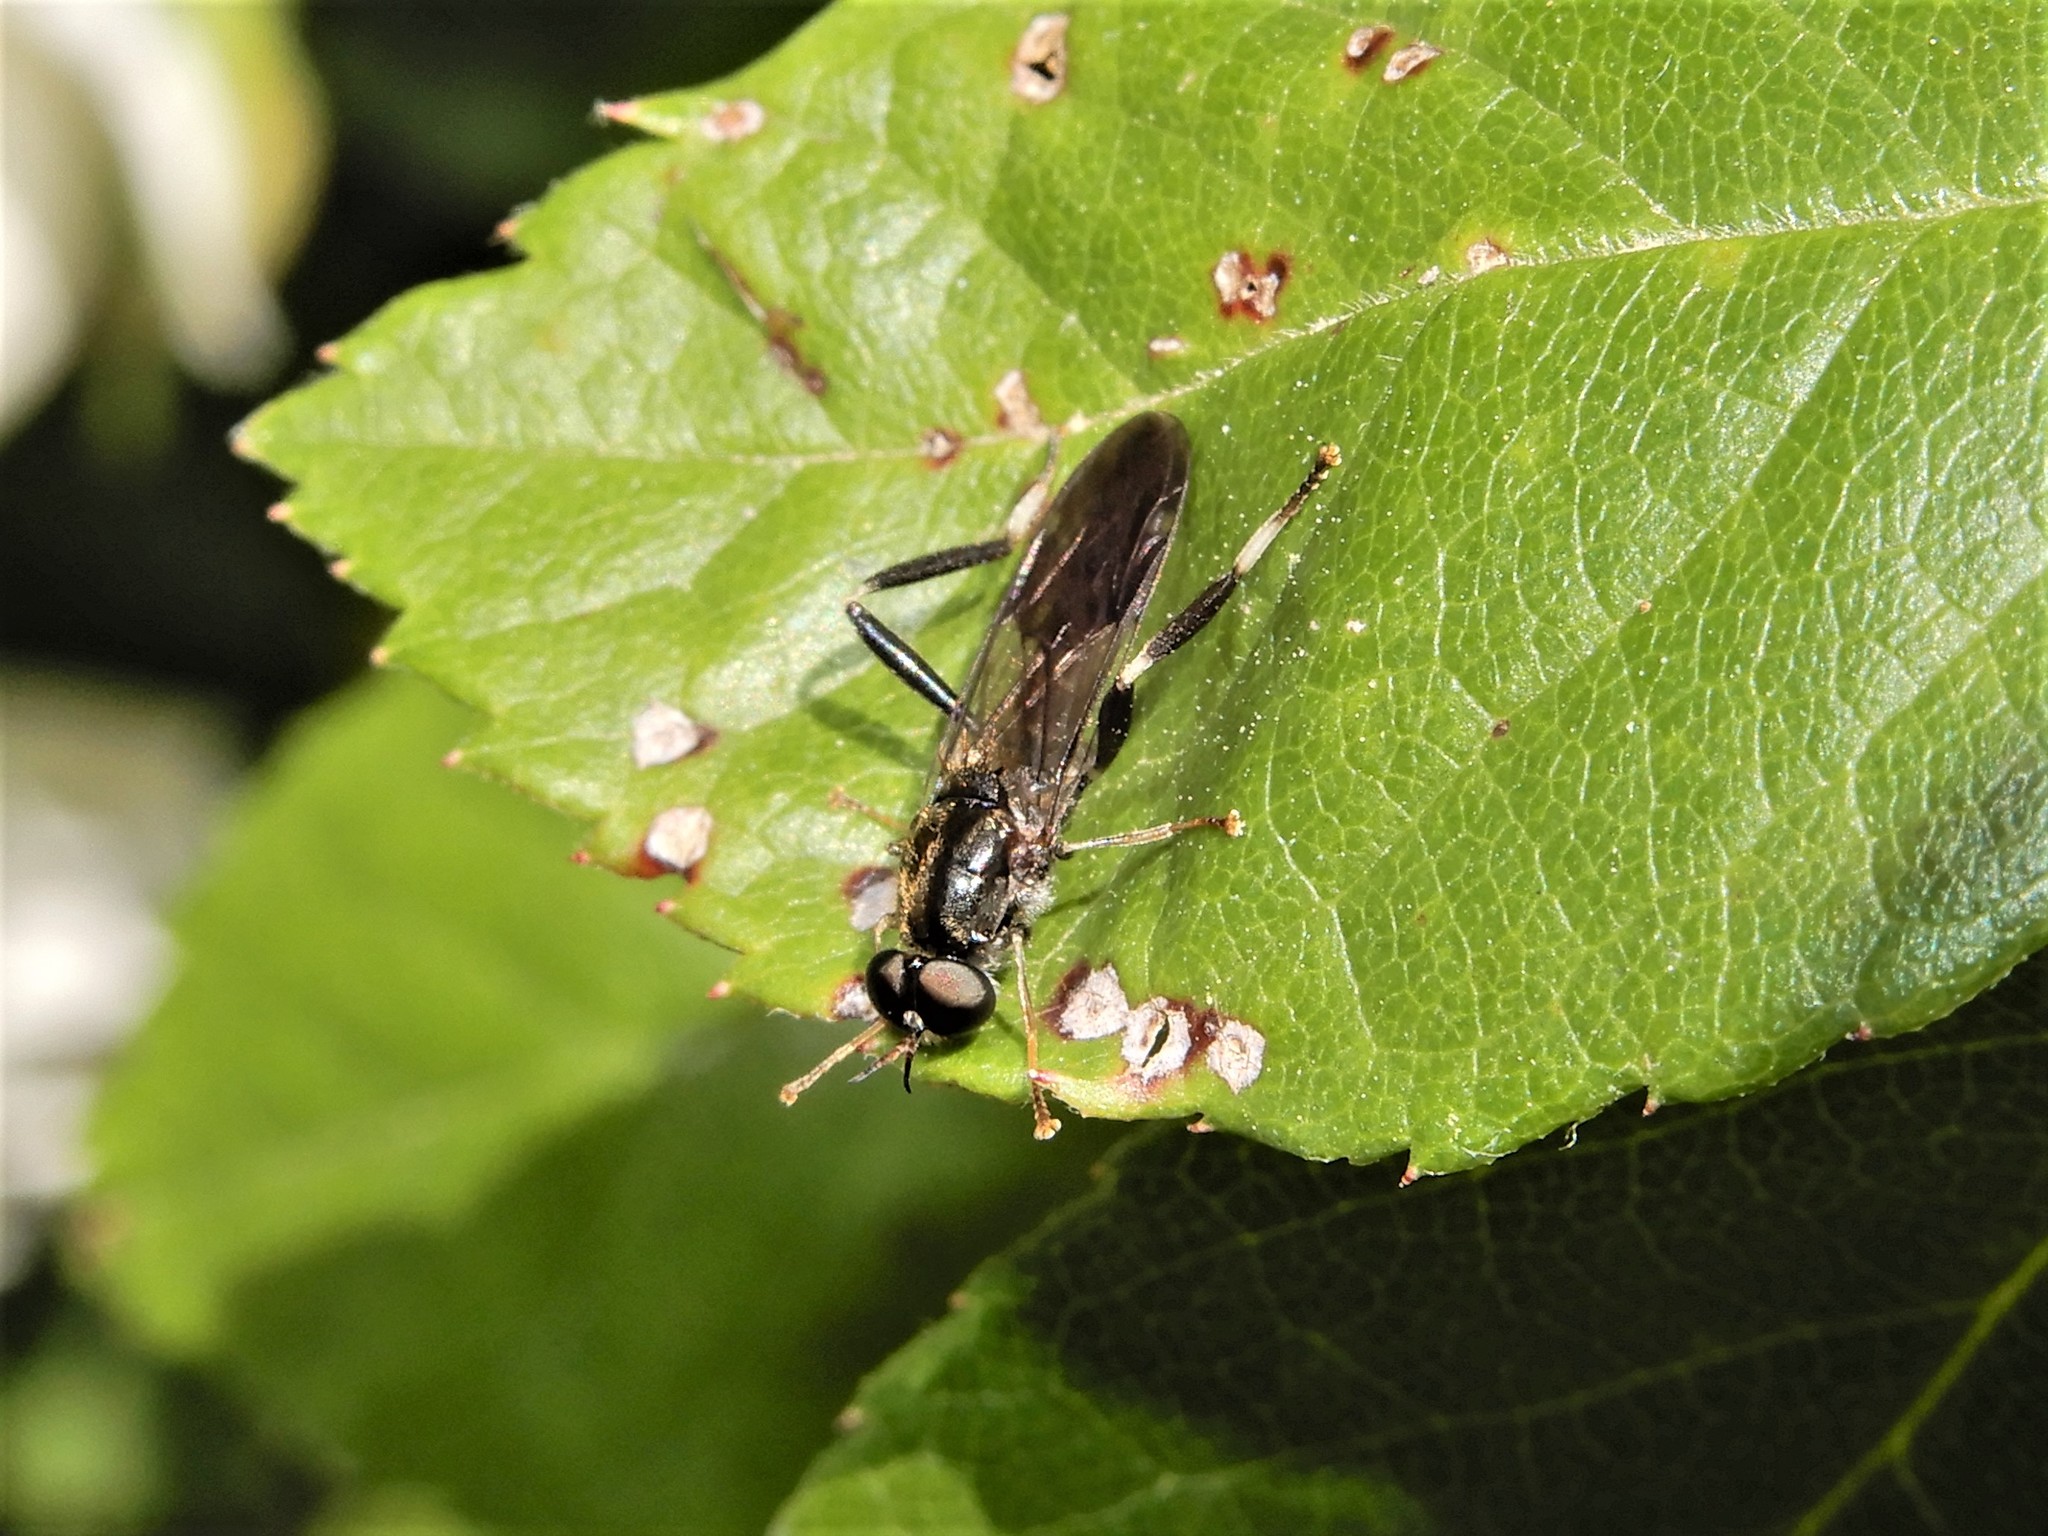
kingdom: Animalia
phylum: Arthropoda
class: Insecta
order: Diptera
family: Stratiomyidae
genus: Exaireta
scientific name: Exaireta spinigera
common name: Blue soldier fly
